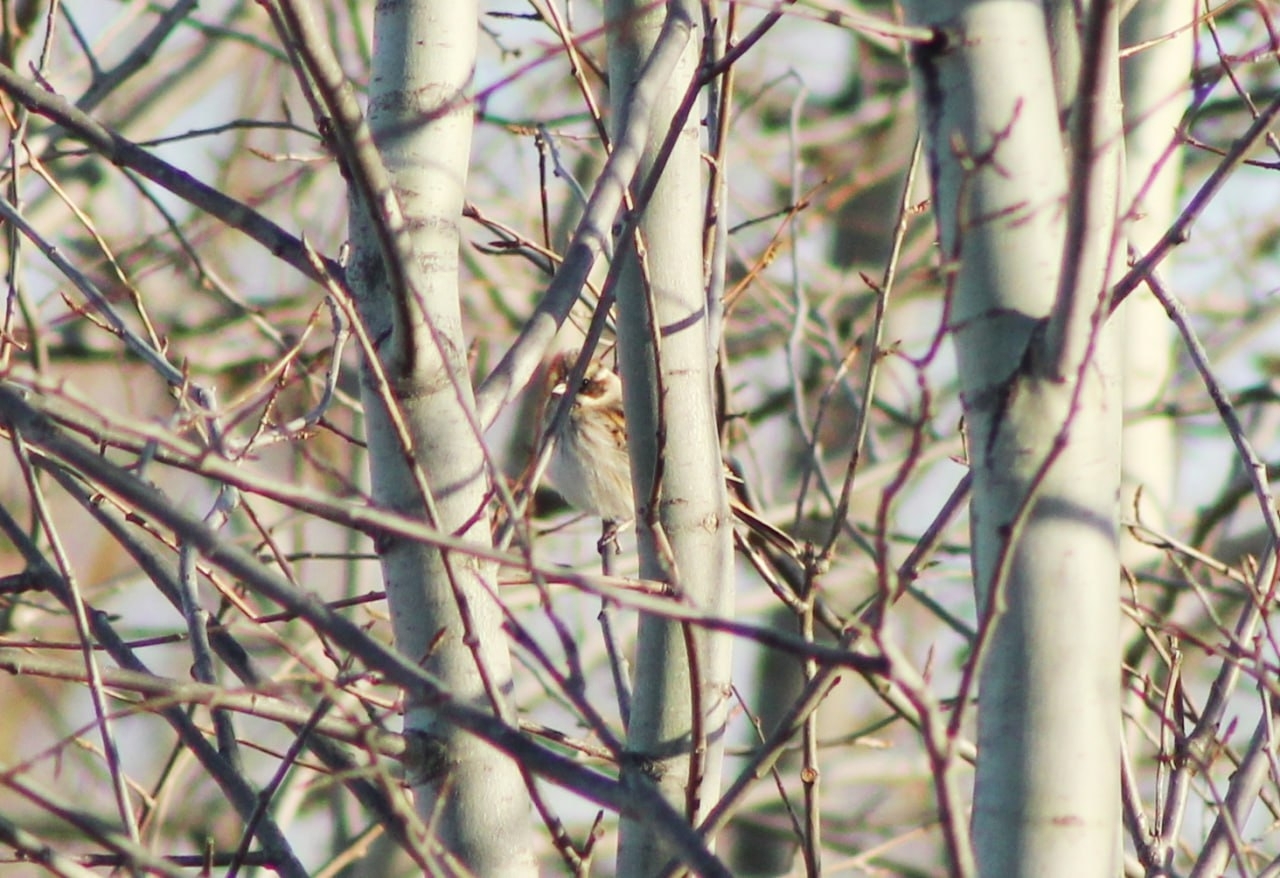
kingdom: Animalia
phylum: Chordata
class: Aves
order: Passeriformes
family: Emberizidae
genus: Emberiza
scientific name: Emberiza schoeniclus
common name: Reed bunting
